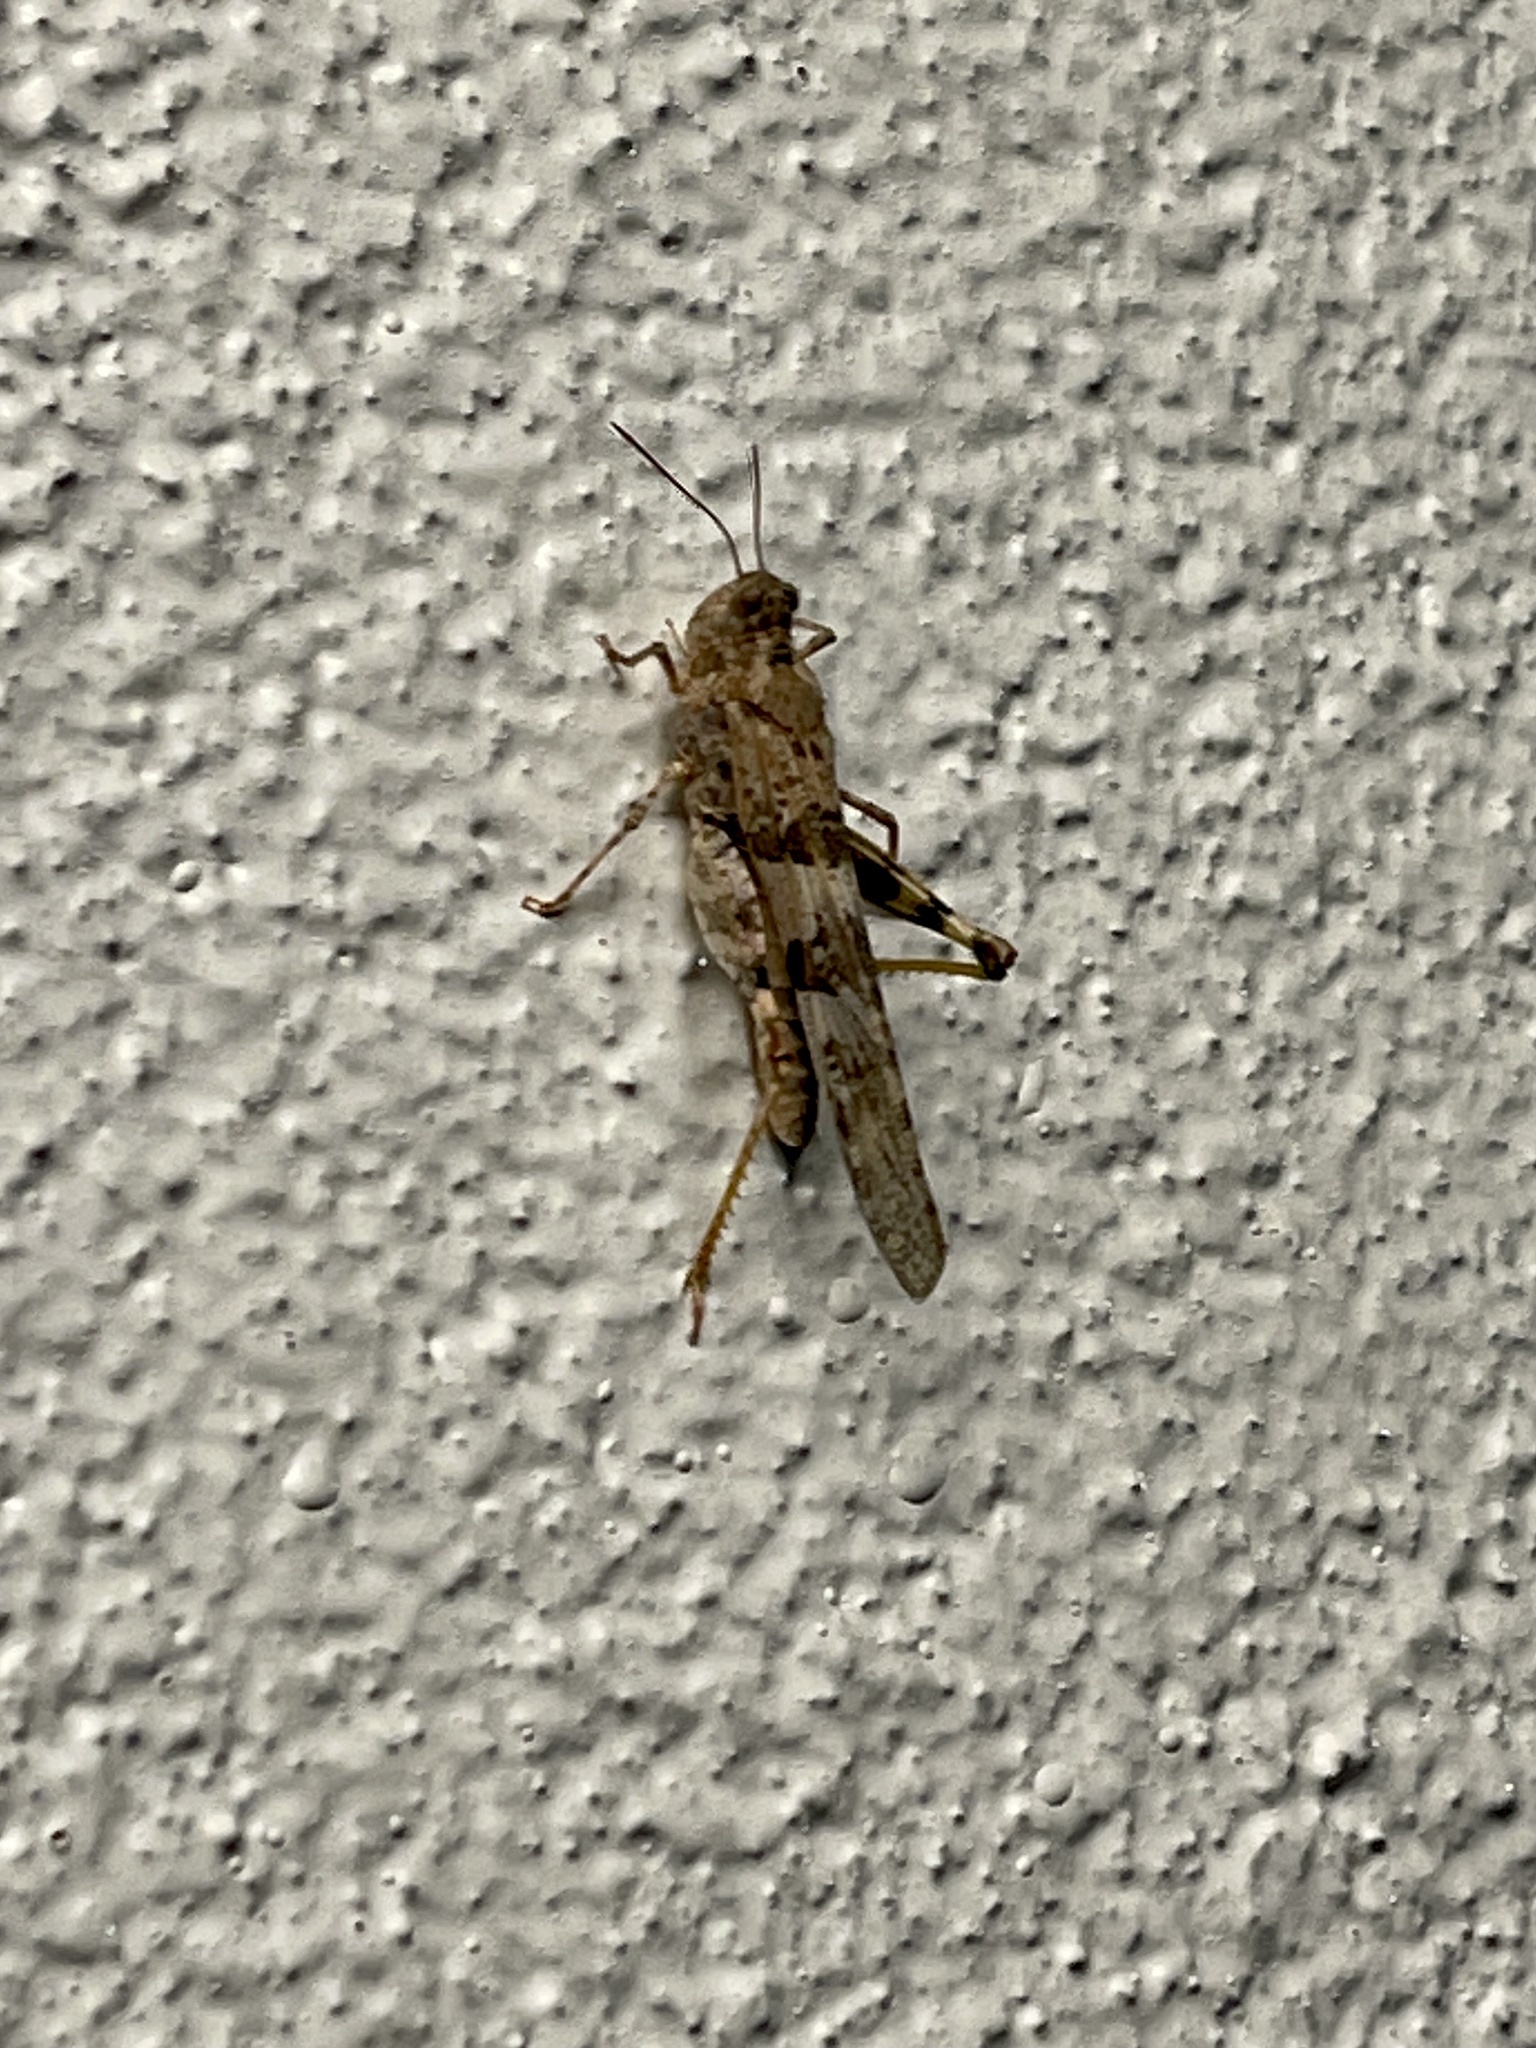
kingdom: Animalia
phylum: Arthropoda
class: Insecta
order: Orthoptera
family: Acrididae
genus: Trimerotropis
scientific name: Trimerotropis pallidipennis
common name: Pallid-winged grasshopper
